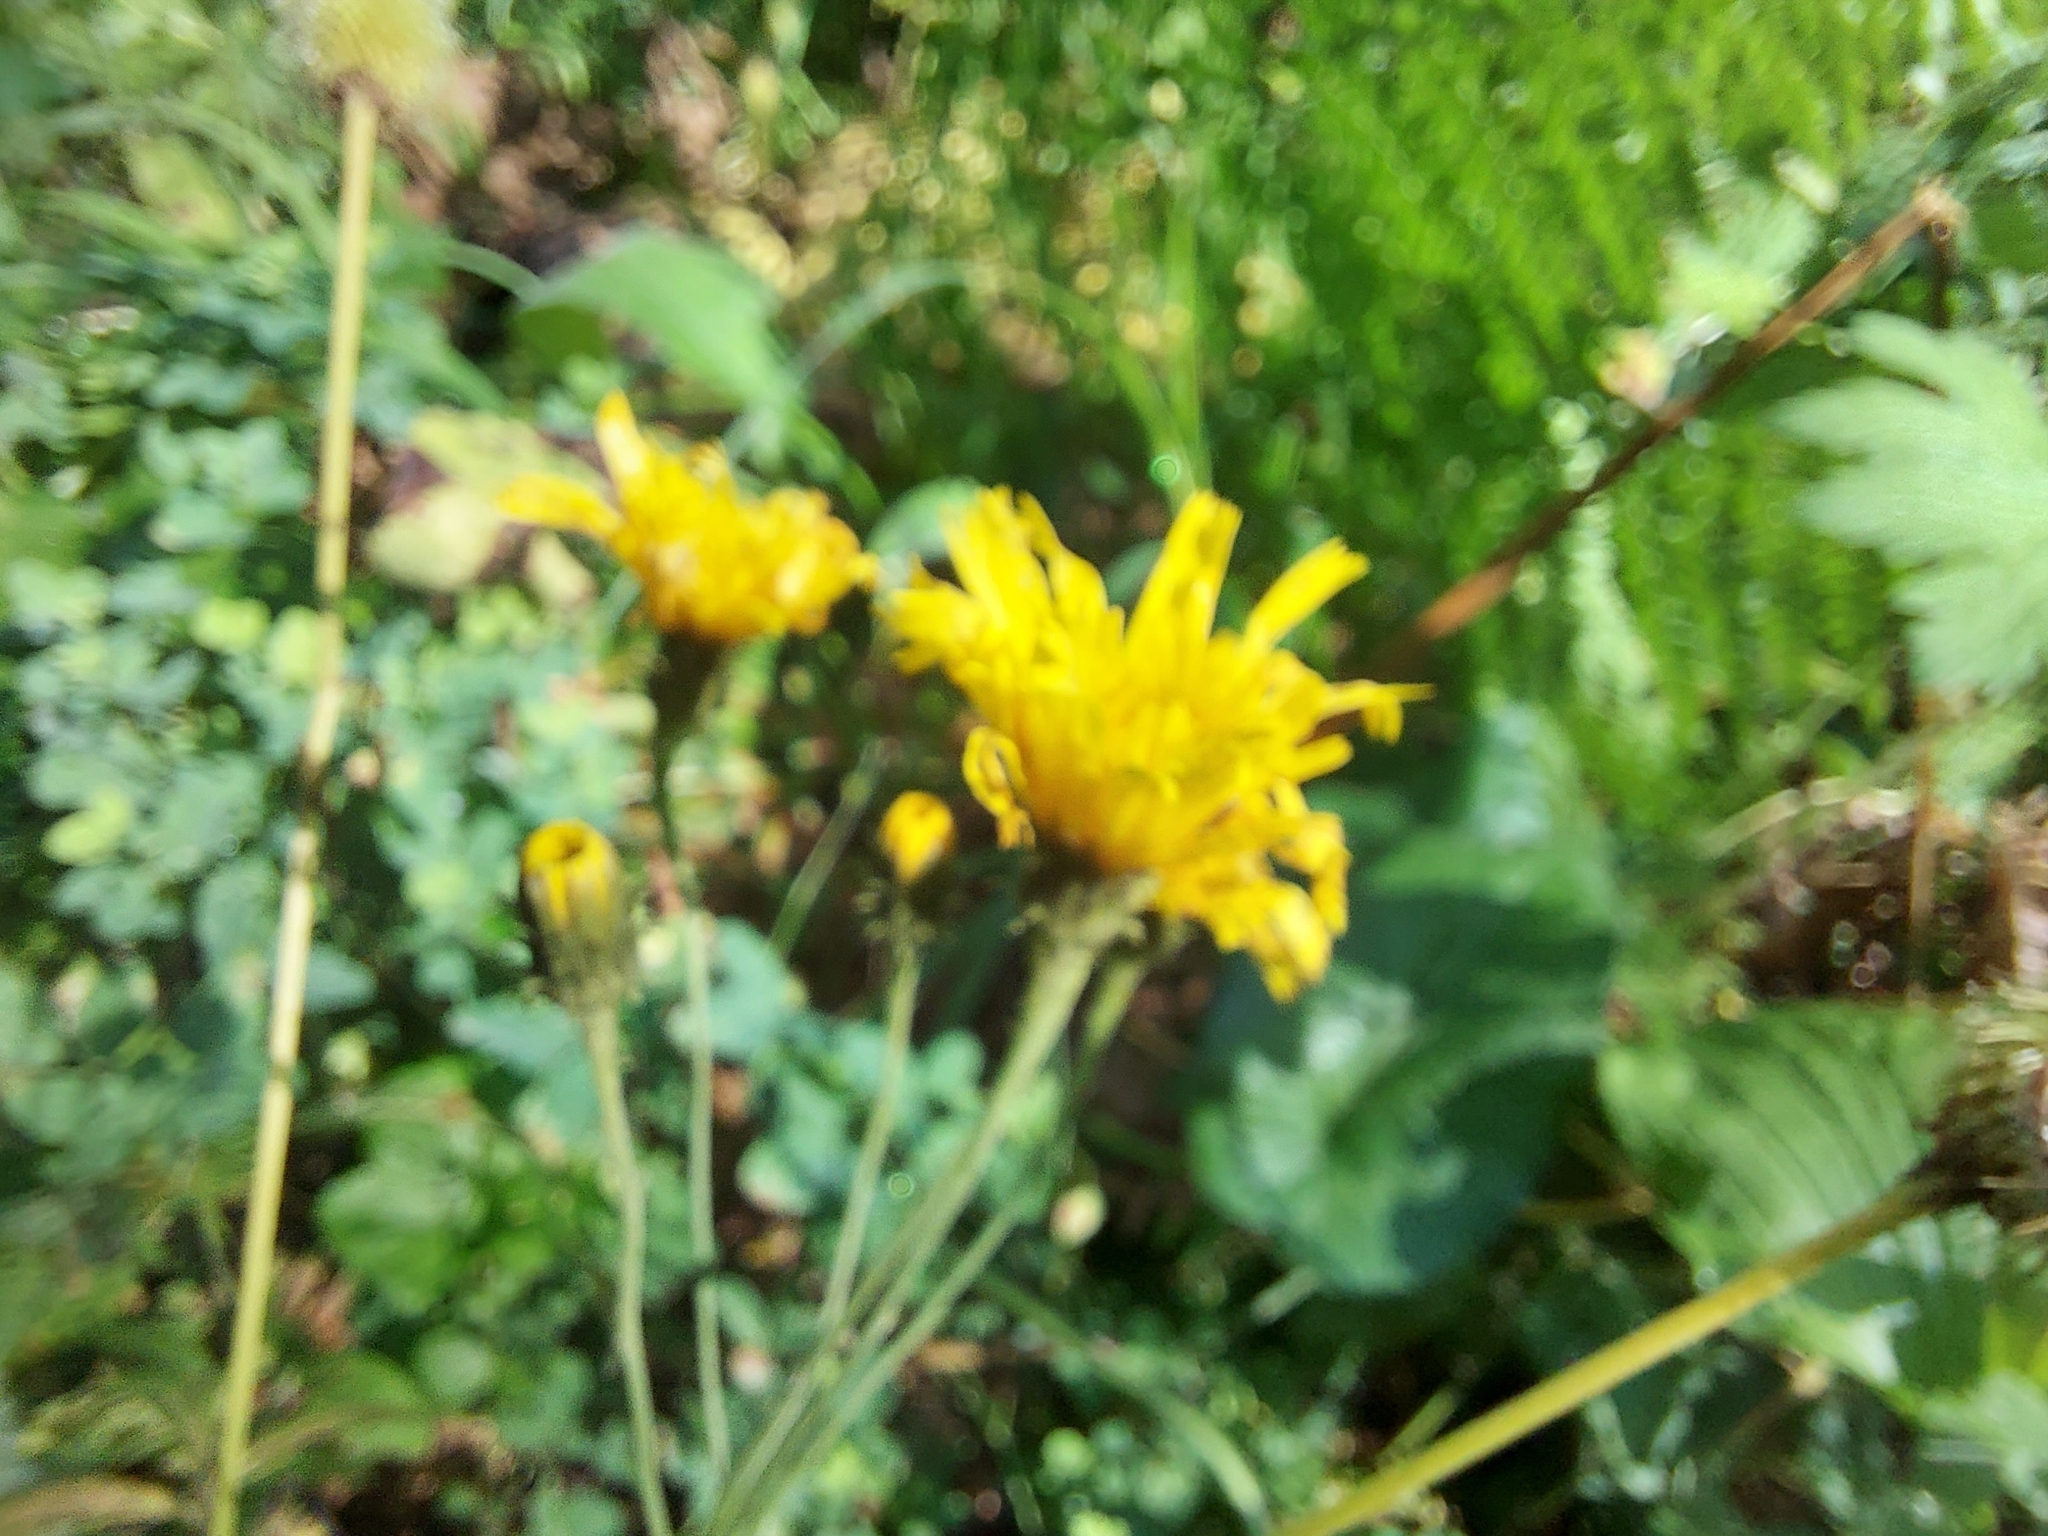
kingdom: Plantae
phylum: Tracheophyta
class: Magnoliopsida
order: Asterales
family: Asteraceae
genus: Hieracium
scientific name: Hieracium umbellatum
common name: Northern hawkweed
